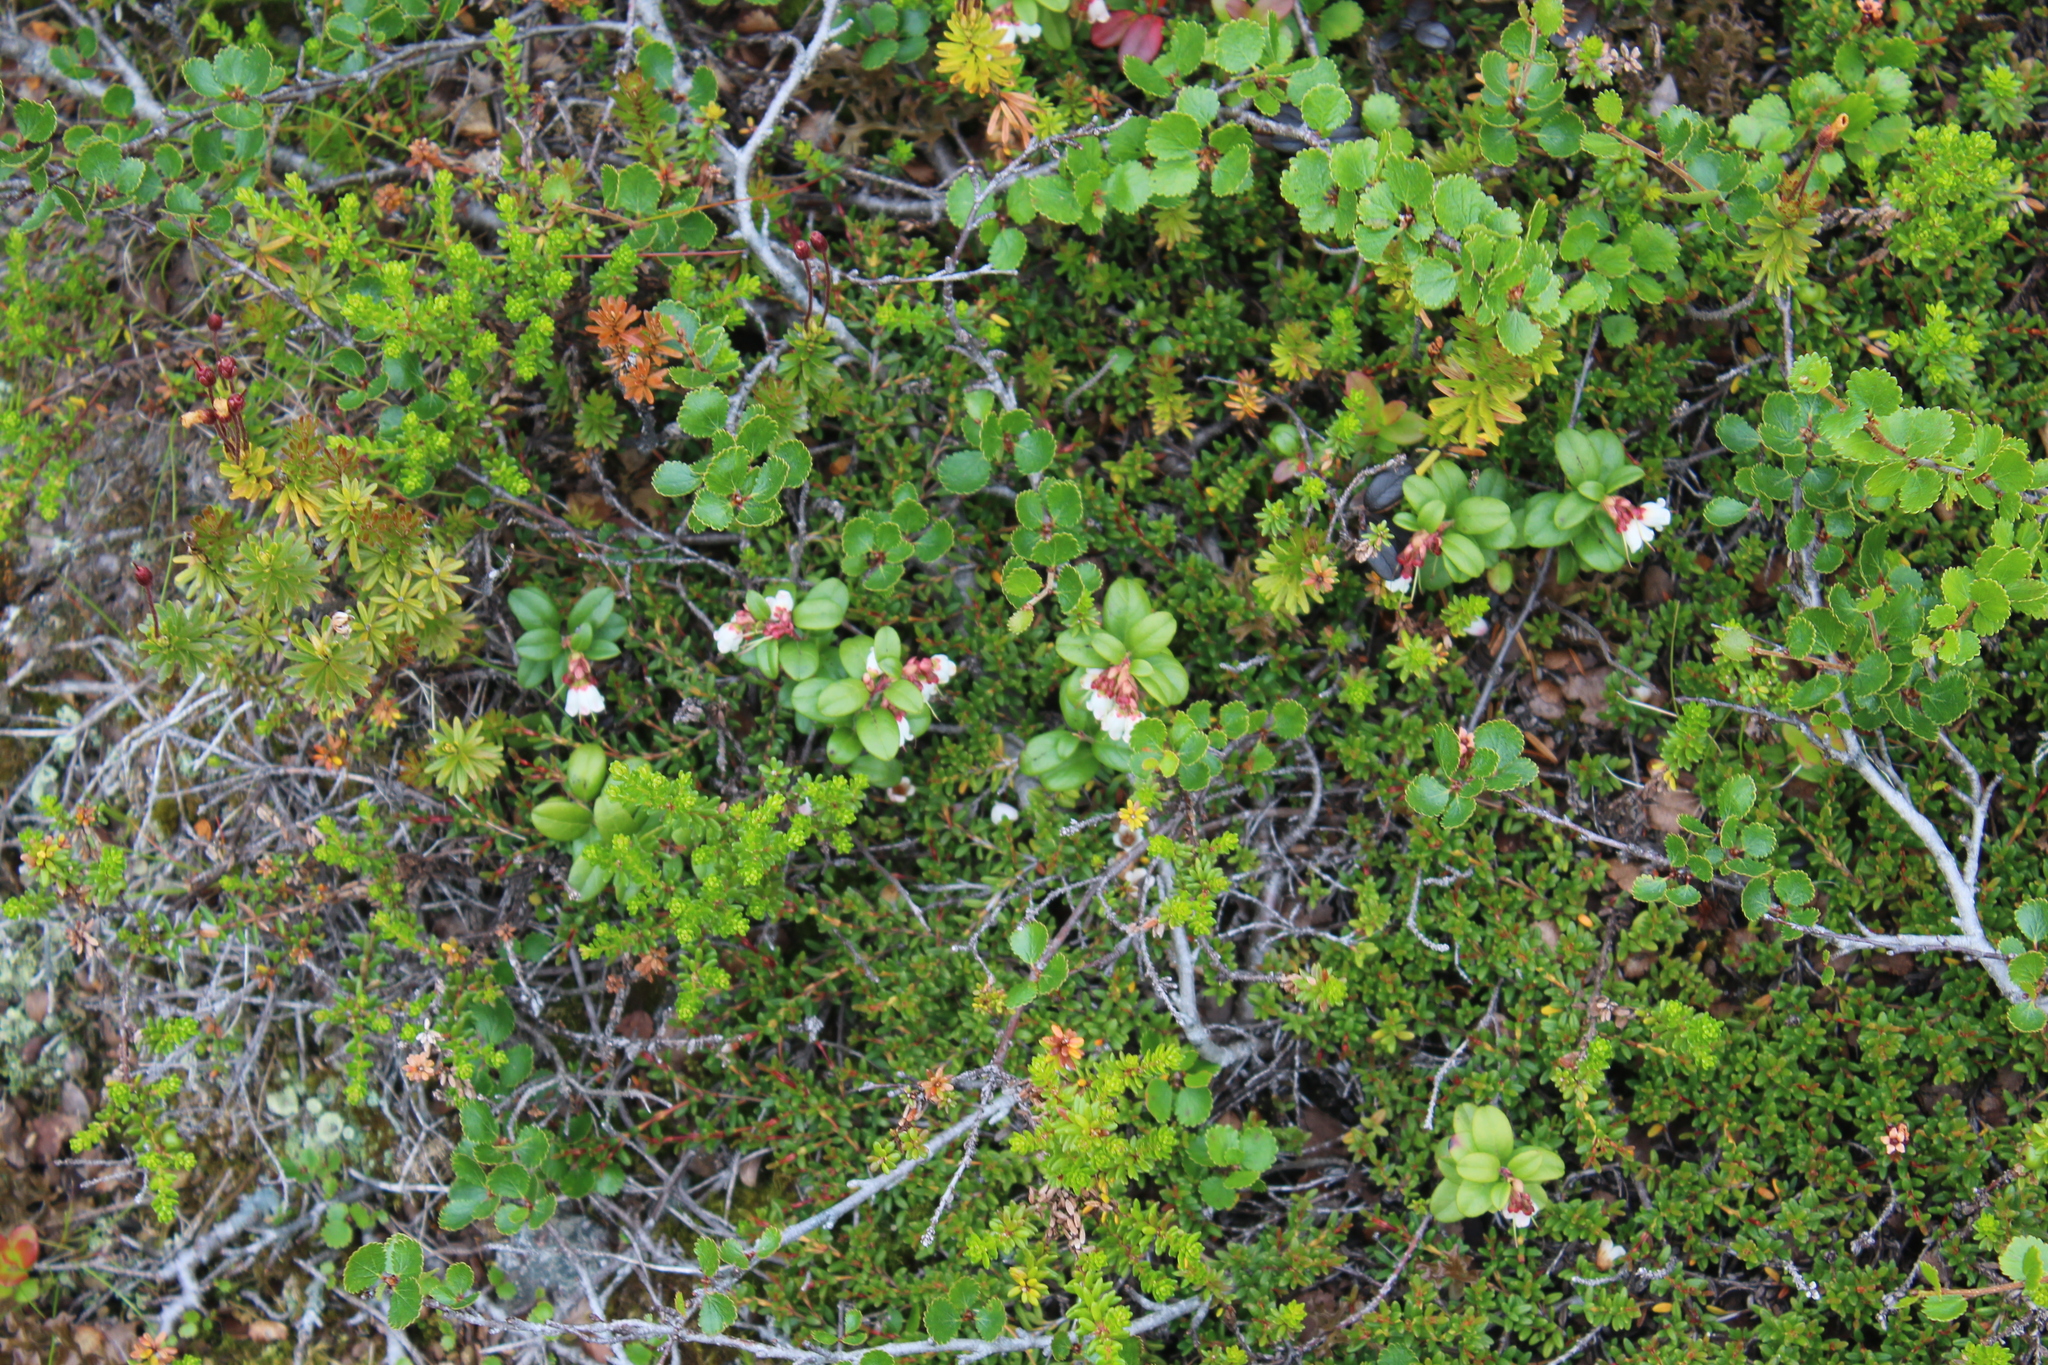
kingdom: Plantae
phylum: Tracheophyta
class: Magnoliopsida
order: Fagales
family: Betulaceae
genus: Betula
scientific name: Betula nana
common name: Arctic dwarf birch
